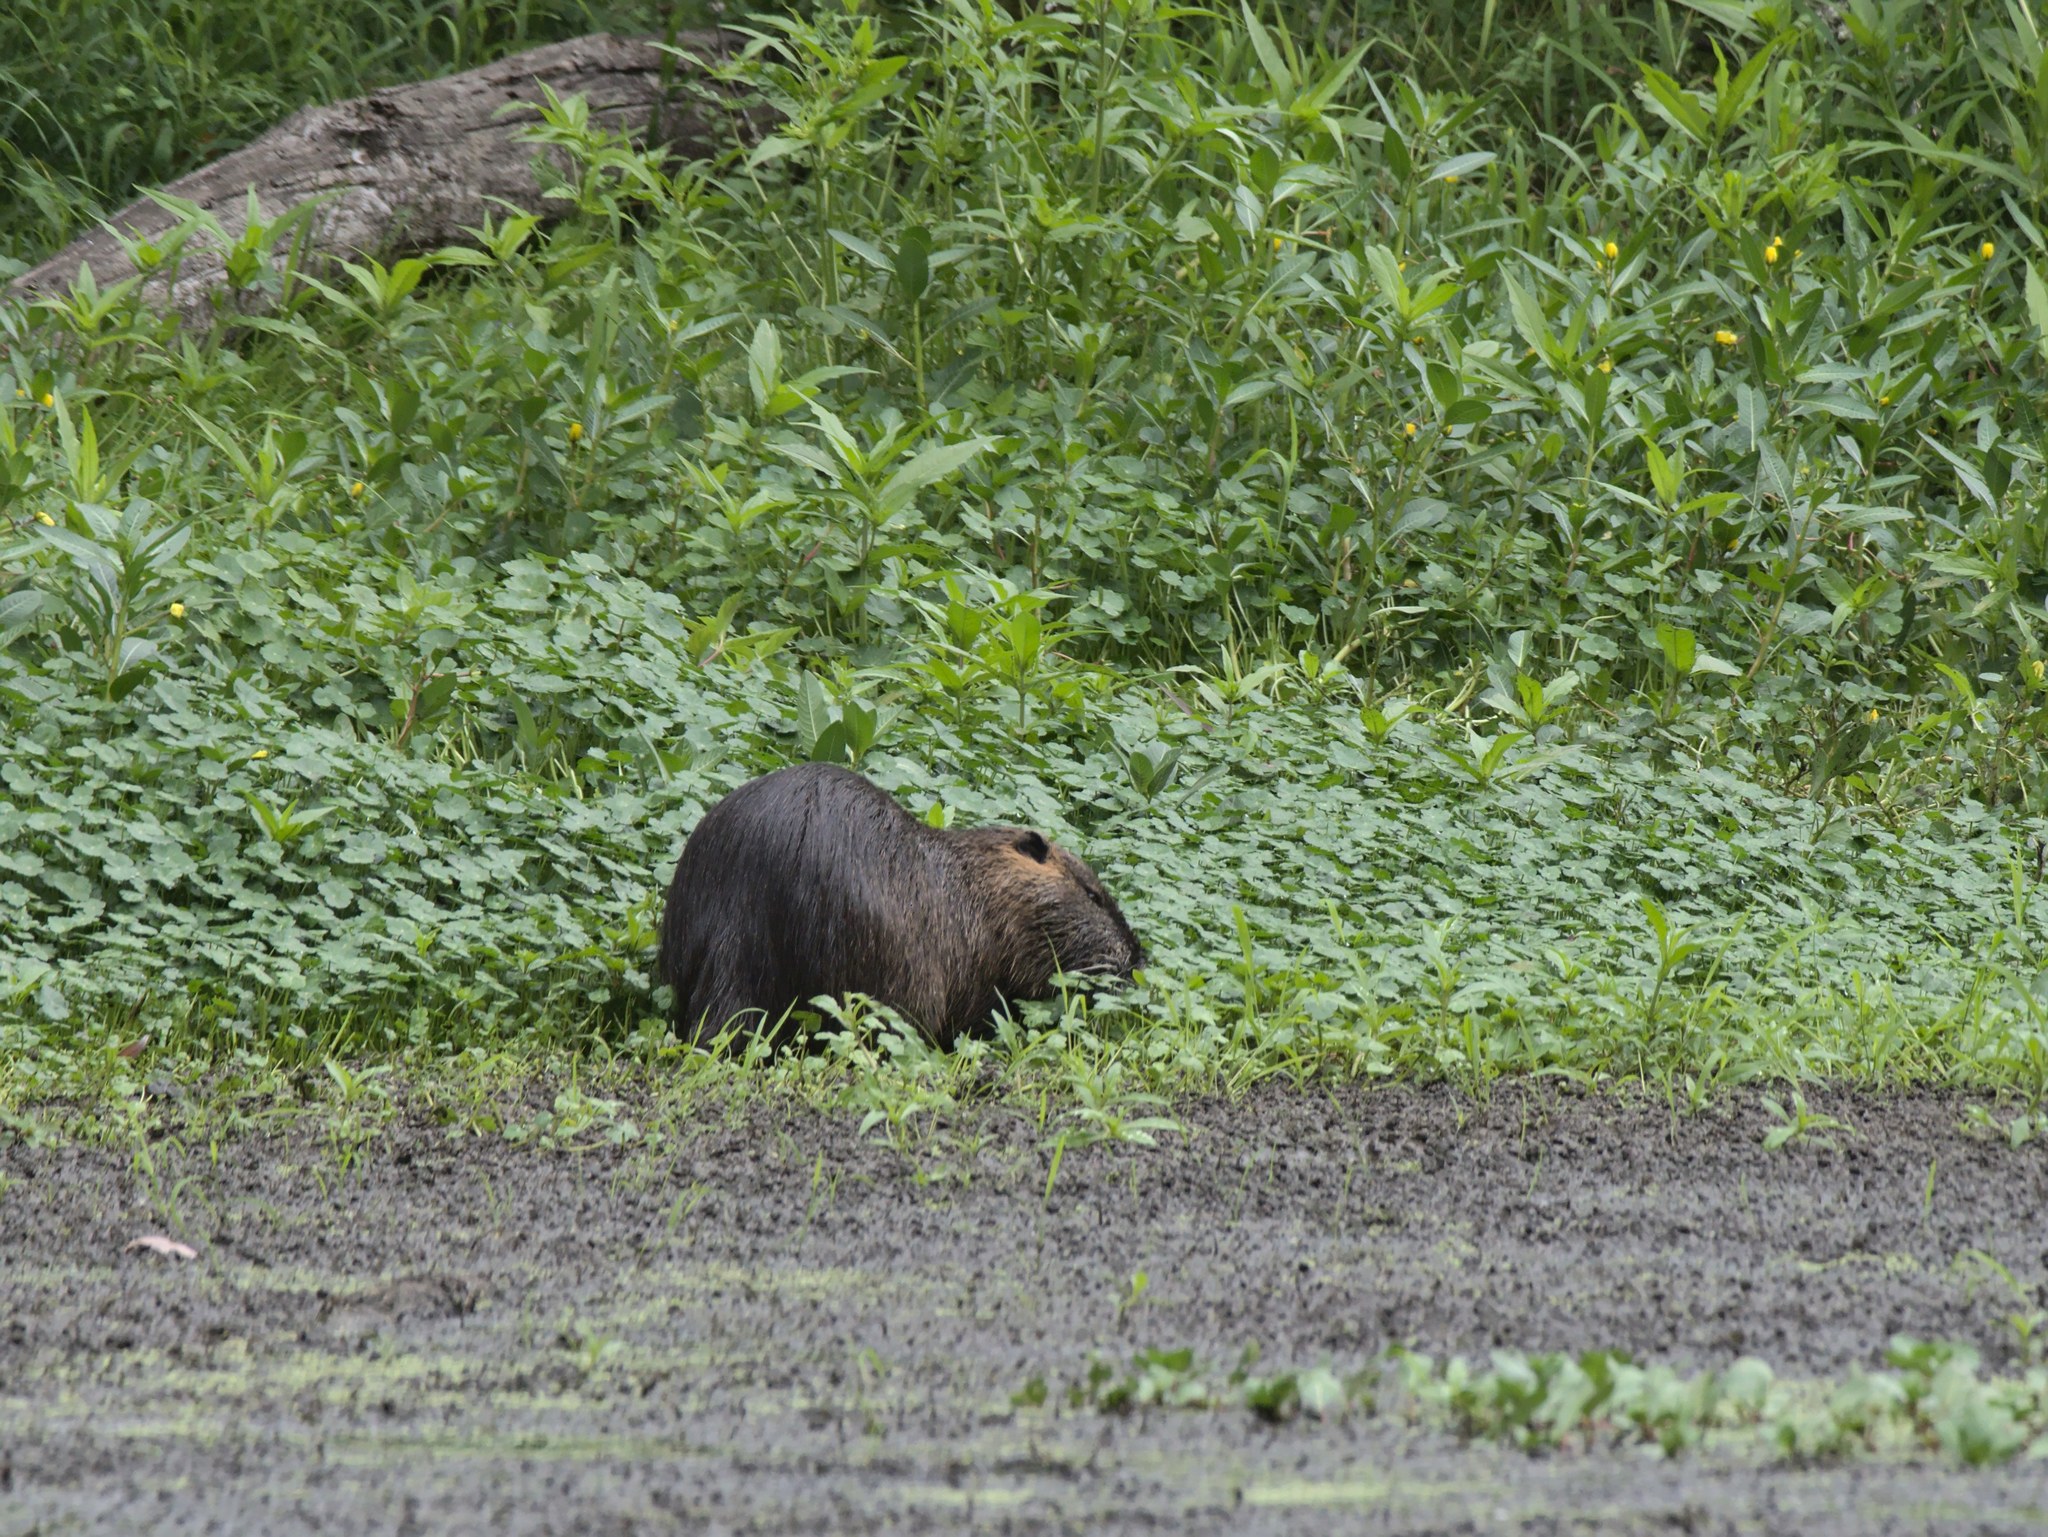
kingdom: Animalia
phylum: Chordata
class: Mammalia
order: Rodentia
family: Myocastoridae
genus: Myocastor
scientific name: Myocastor coypus
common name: Coypu
